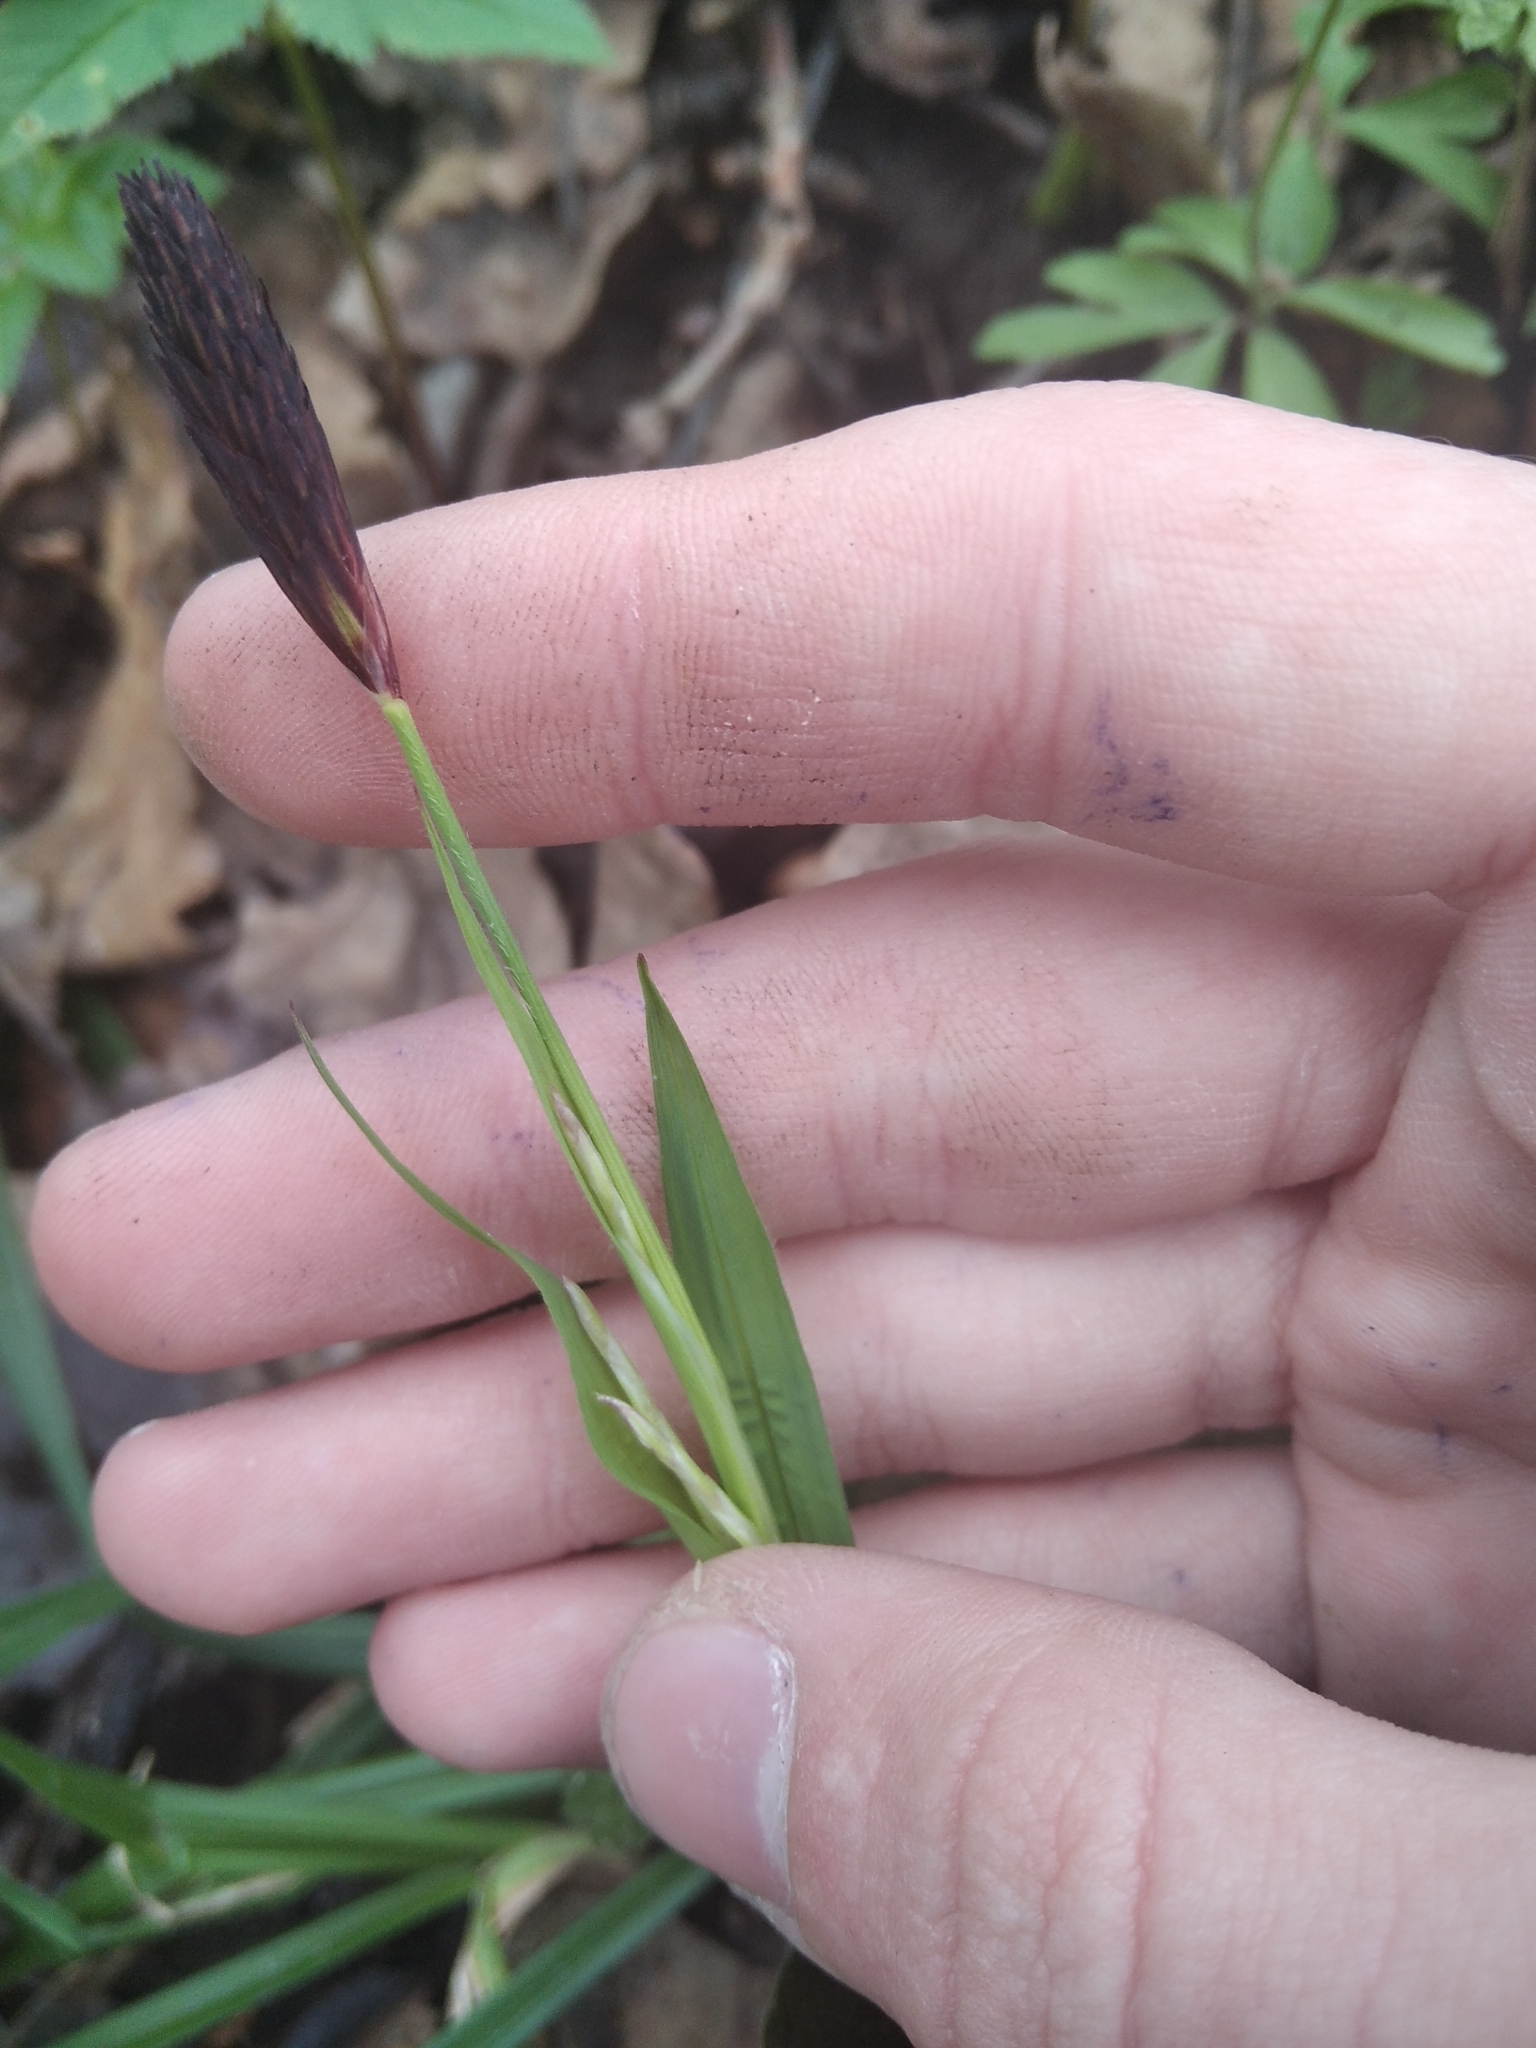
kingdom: Plantae
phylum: Tracheophyta
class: Liliopsida
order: Poales
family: Cyperaceae
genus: Carex
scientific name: Carex pilosa
